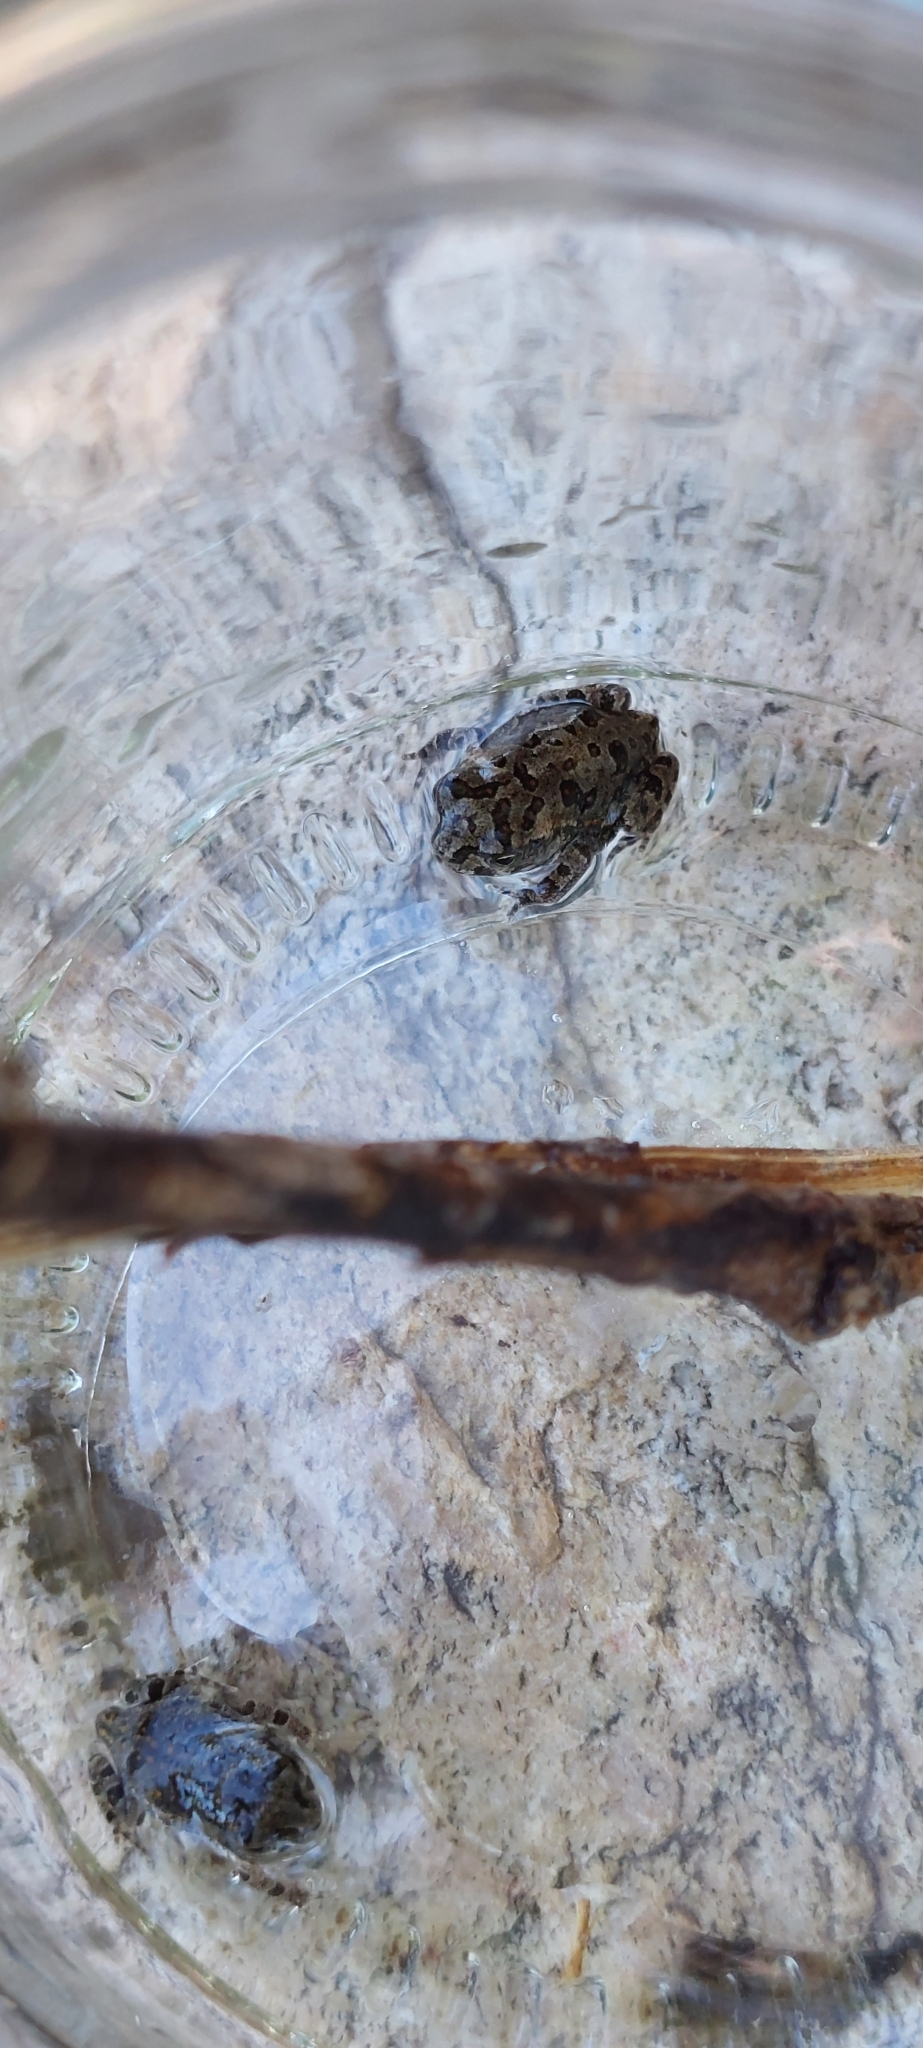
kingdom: Animalia
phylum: Chordata
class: Amphibia
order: Anura
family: Bufonidae
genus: Rhinella
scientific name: Rhinella arenarum
